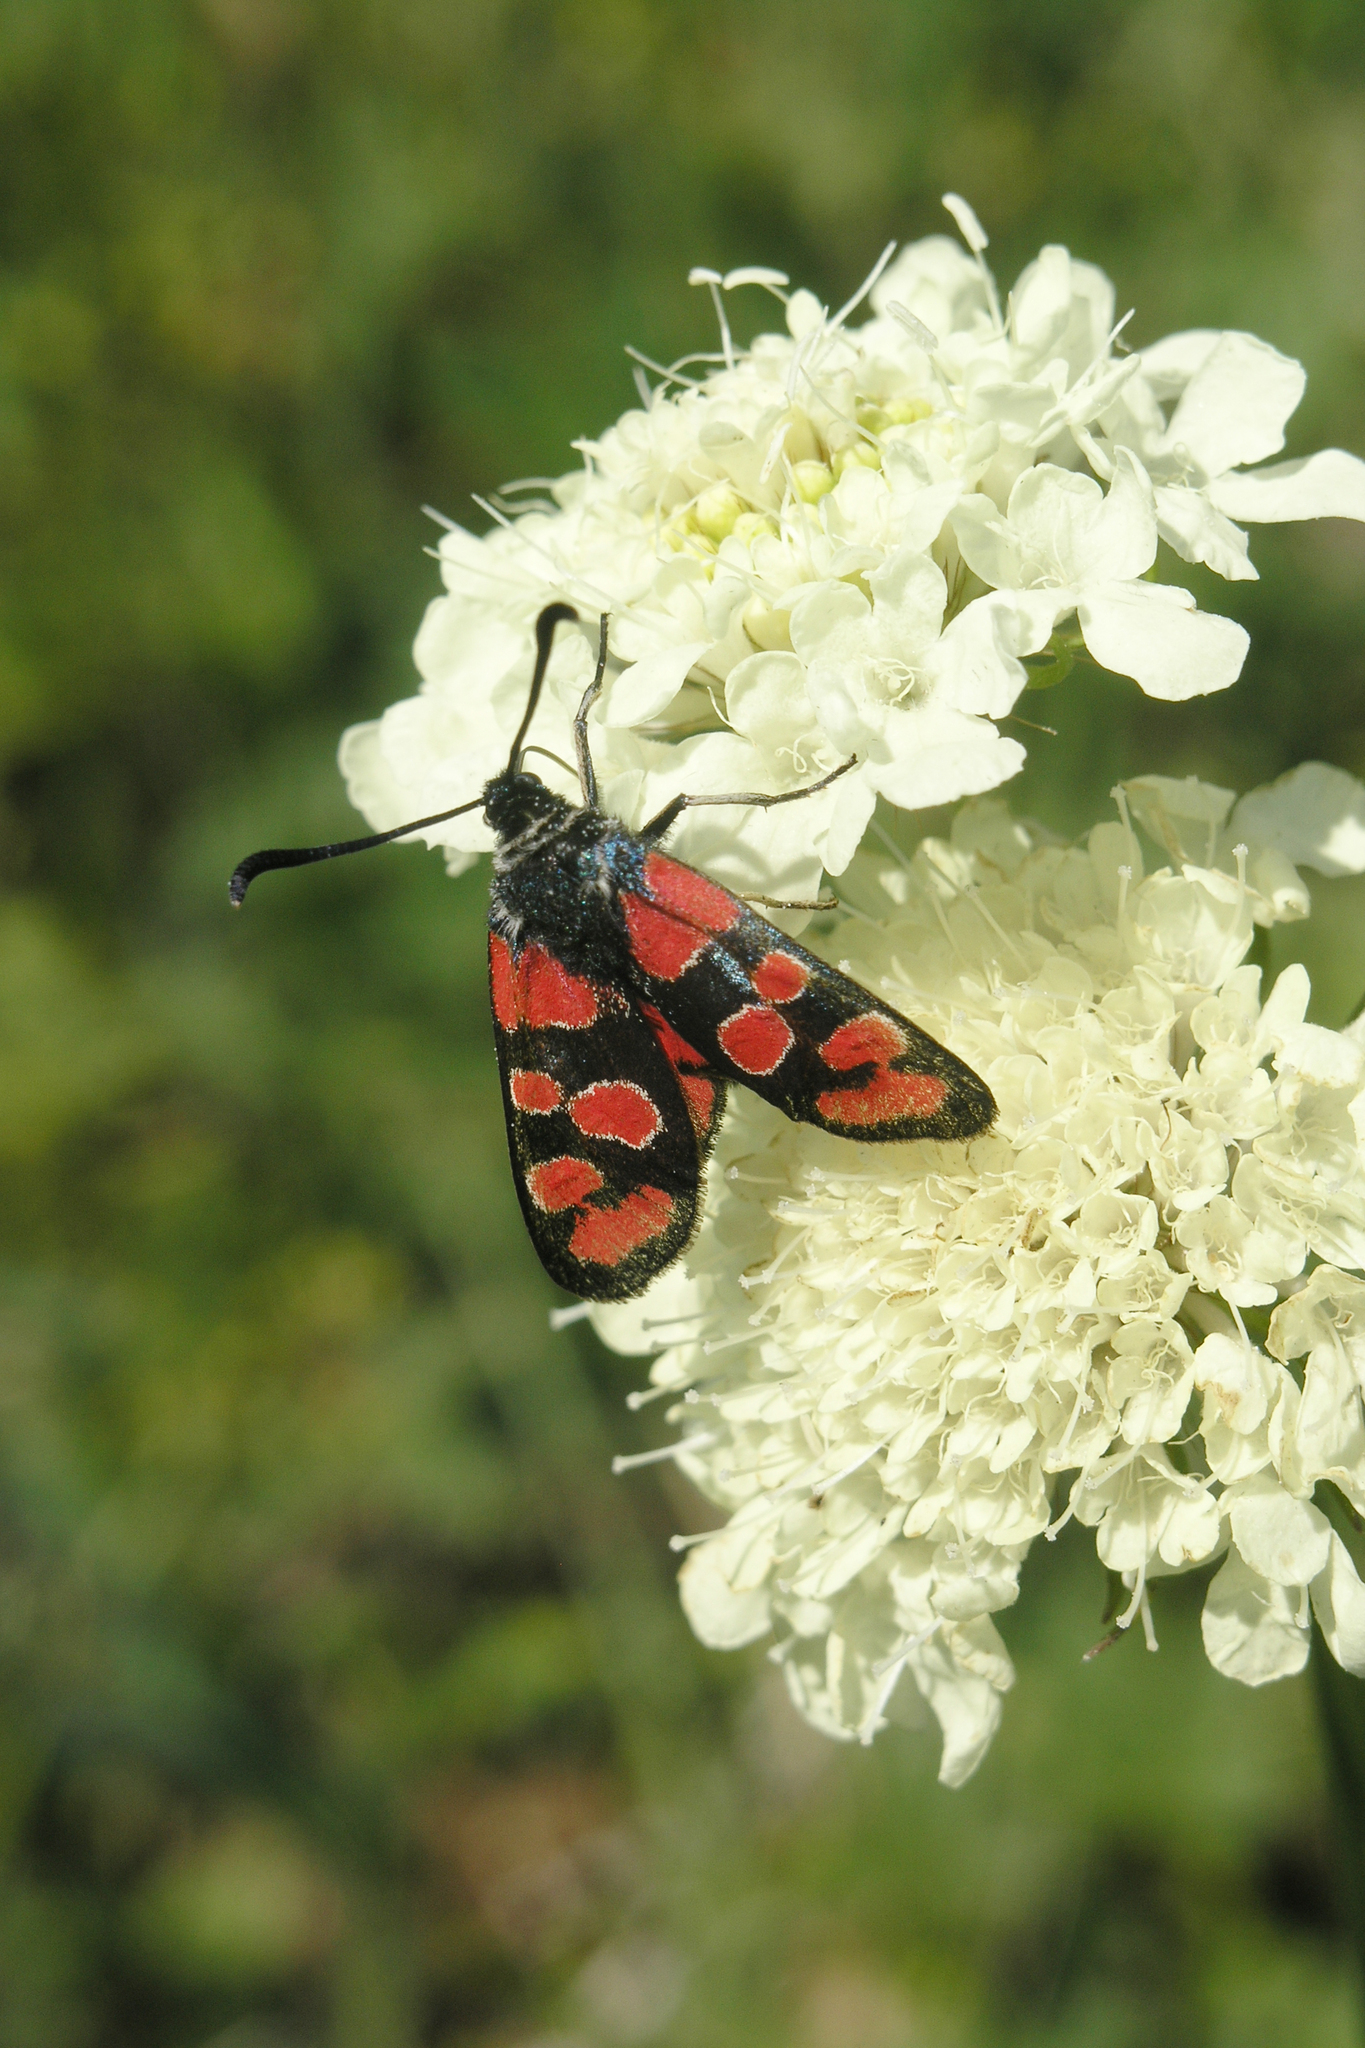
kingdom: Animalia
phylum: Arthropoda
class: Insecta
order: Lepidoptera
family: Zygaenidae
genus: Zygaena
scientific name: Zygaena carniolica
